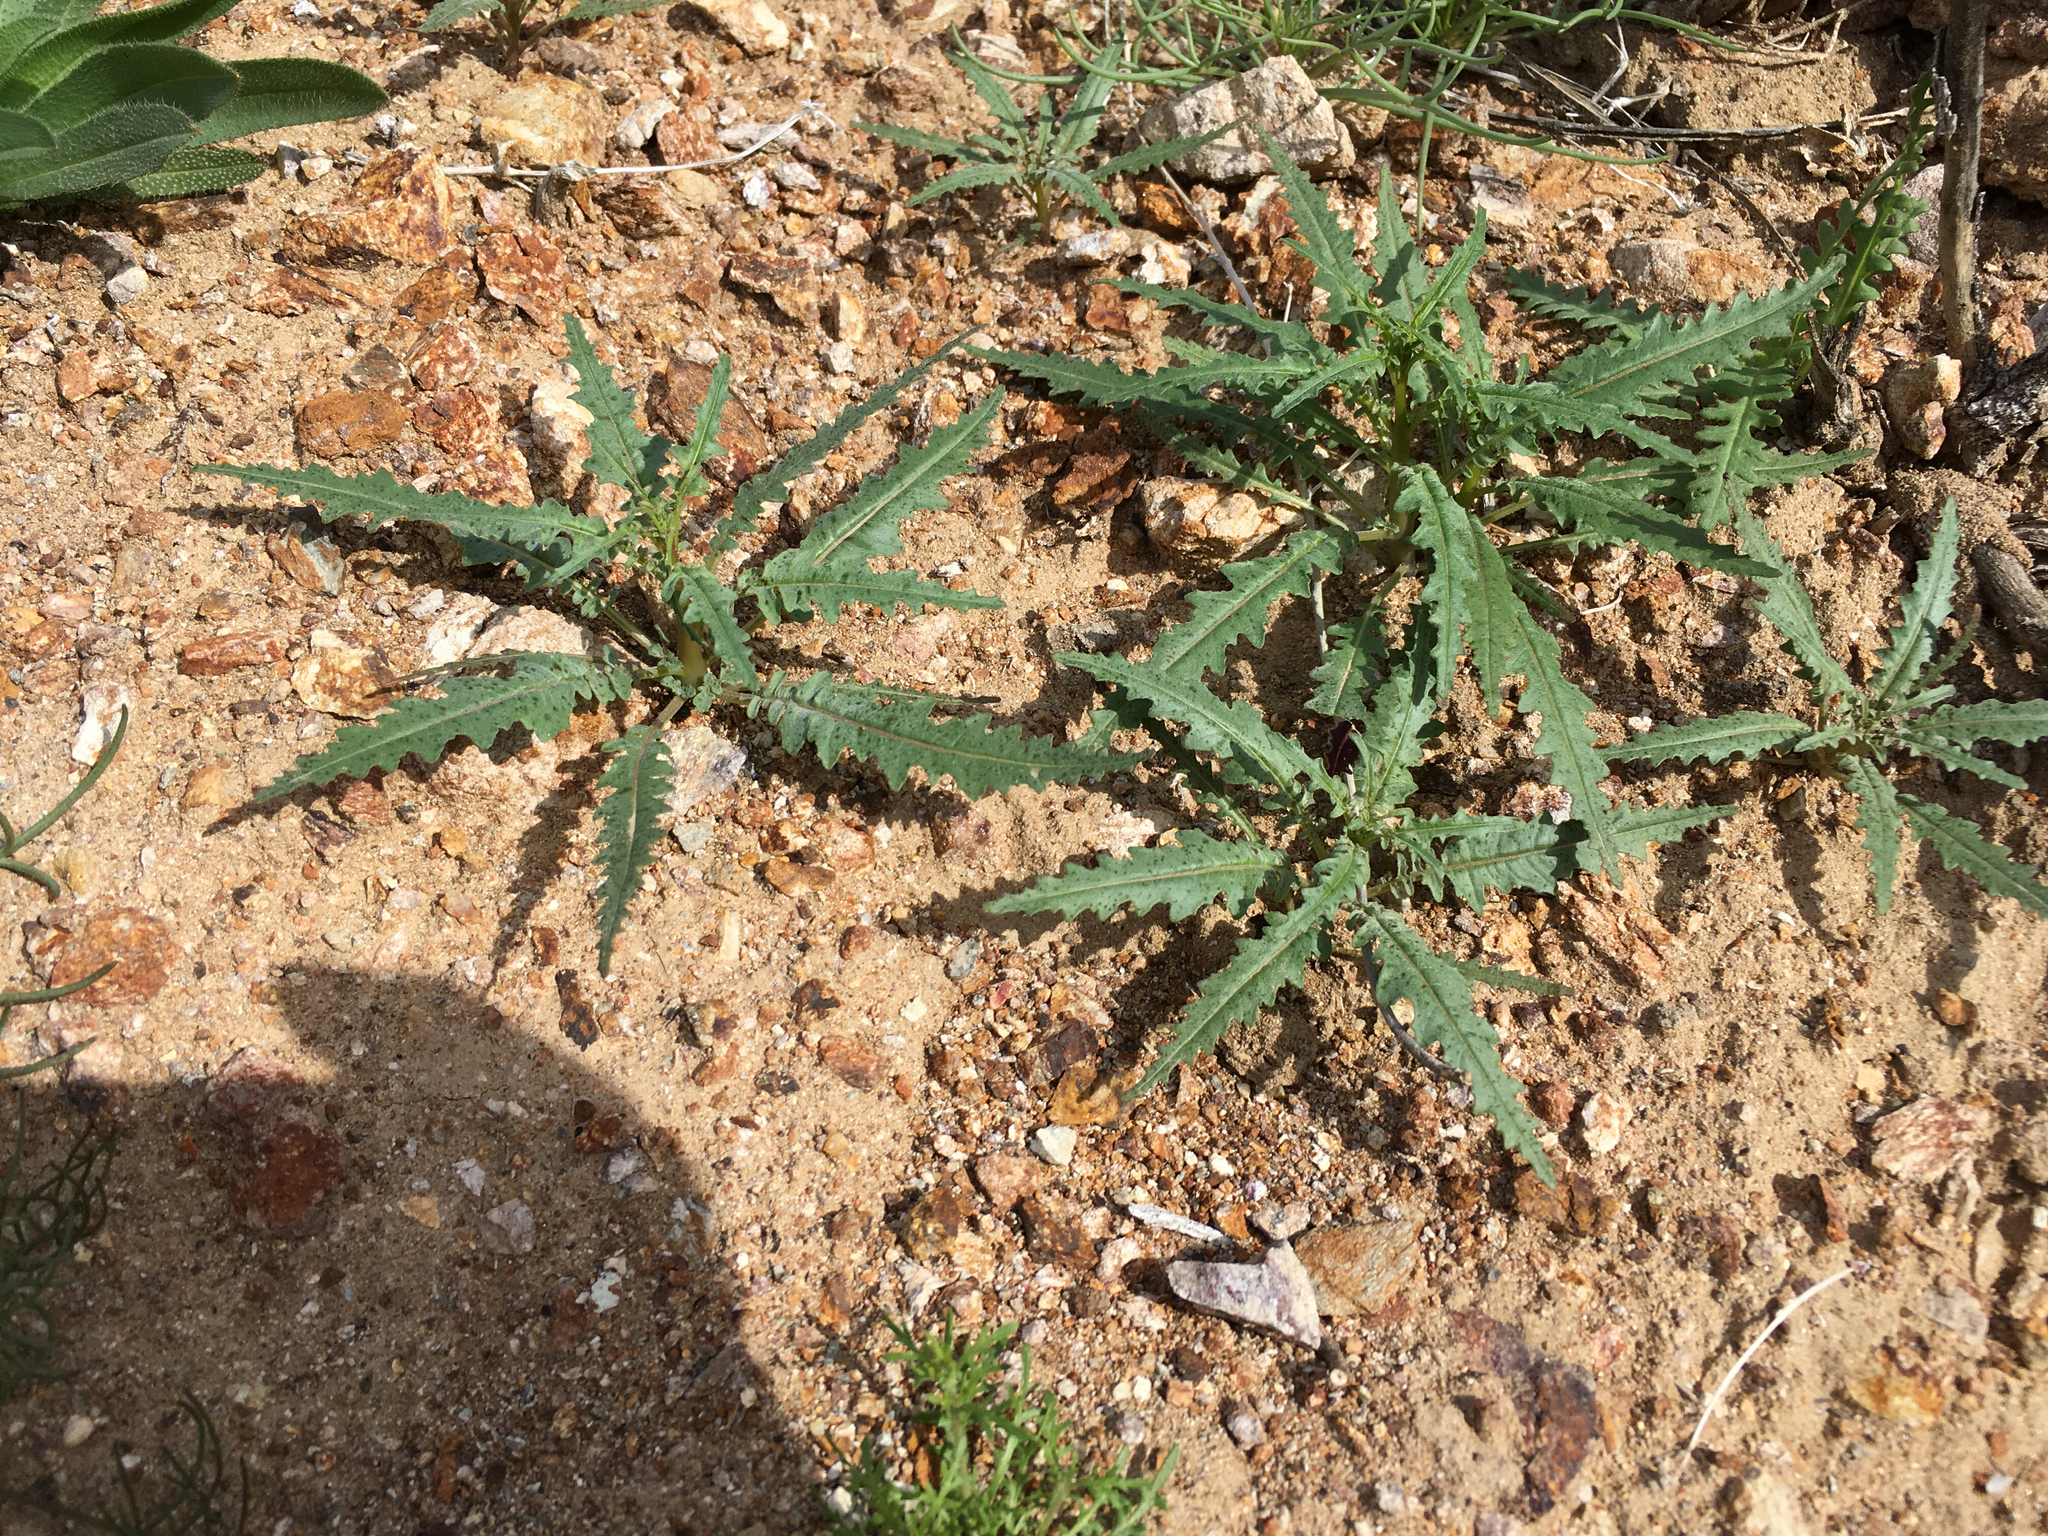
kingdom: Plantae
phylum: Tracheophyta
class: Magnoliopsida
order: Myrtales
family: Onagraceae
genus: Eulobus
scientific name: Eulobus californicus
